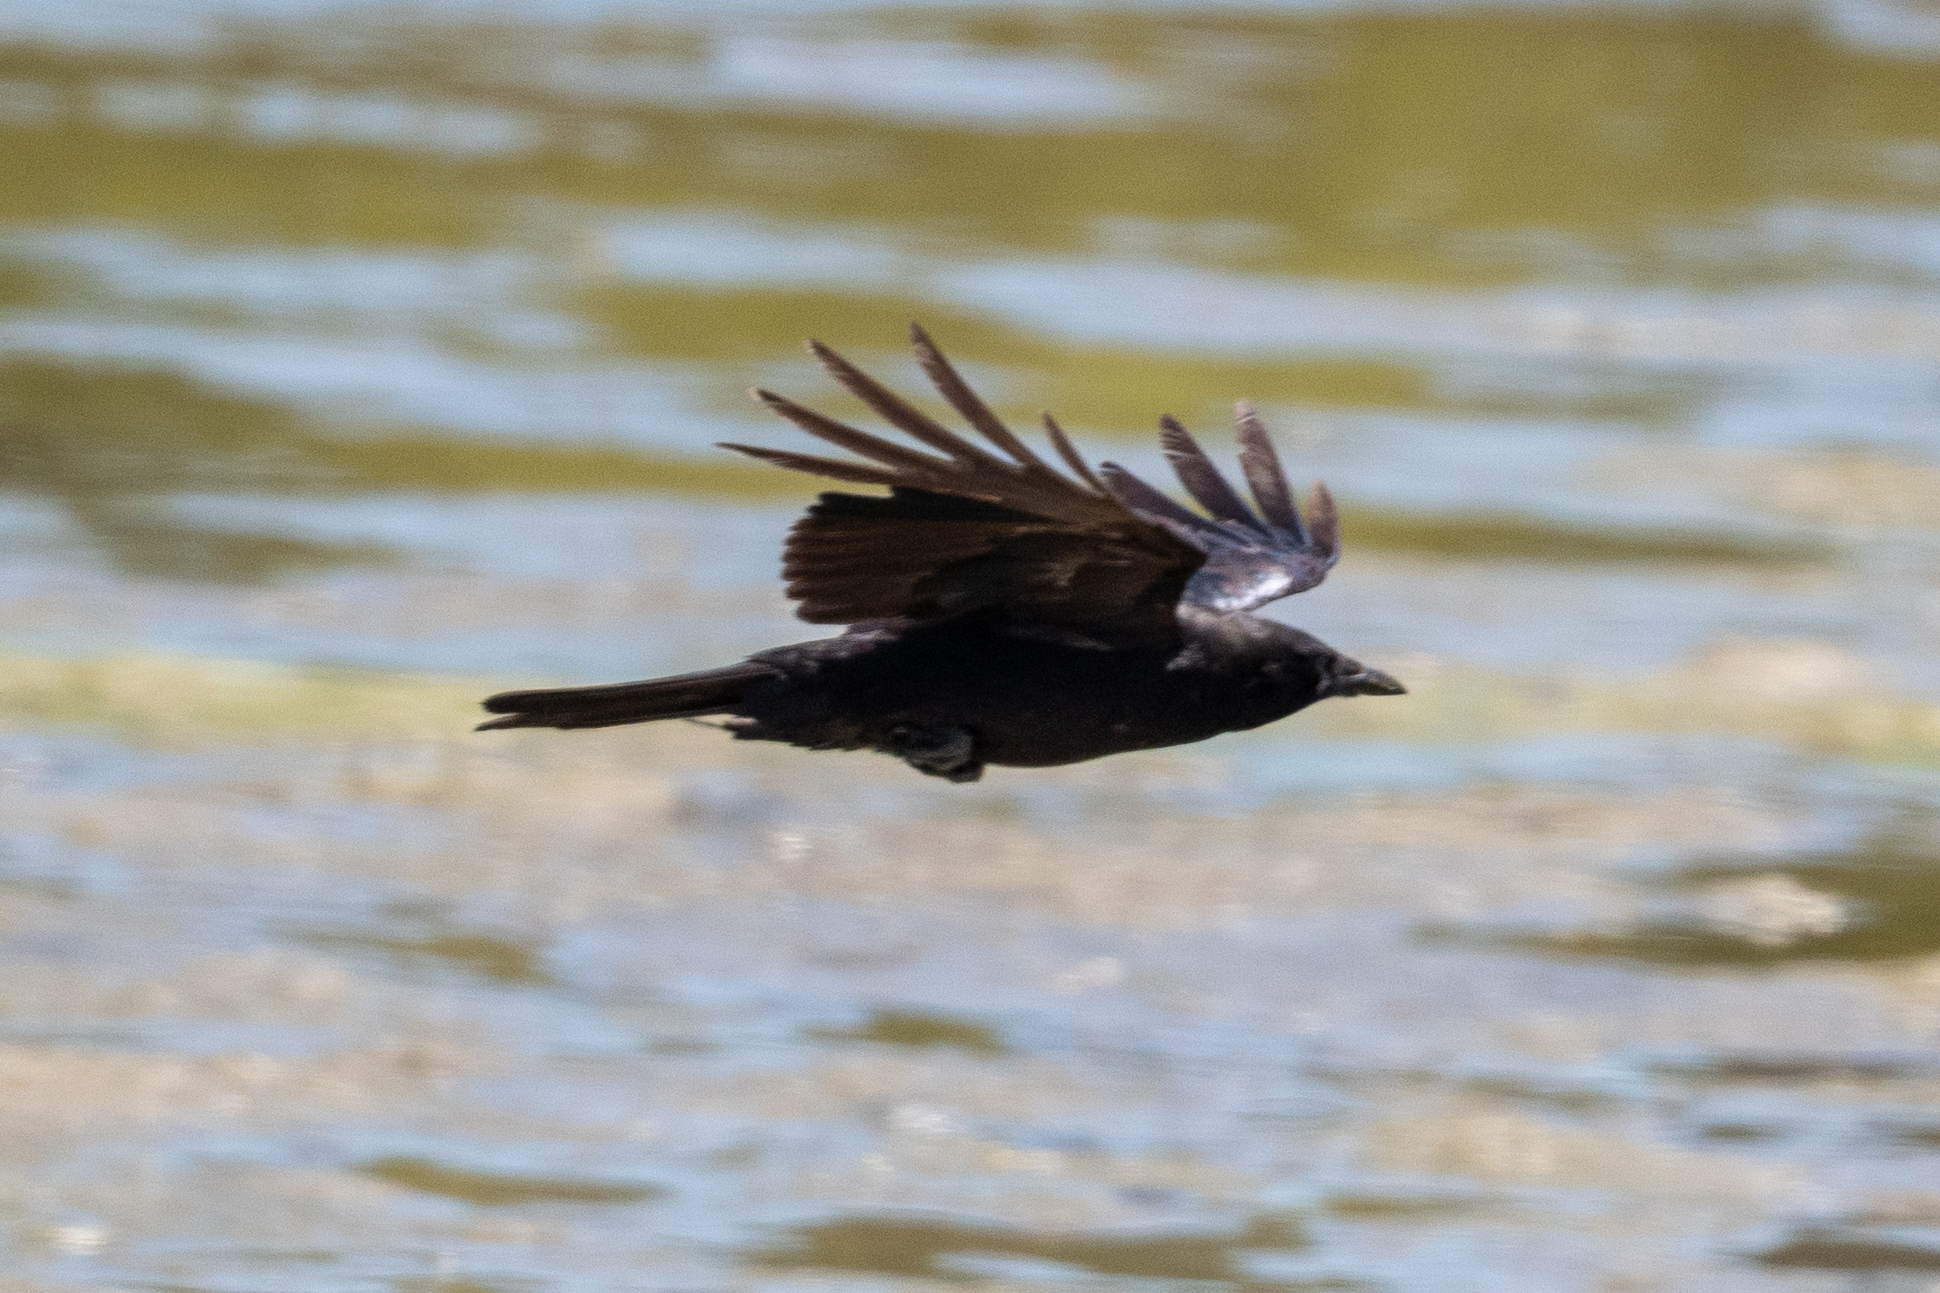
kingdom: Animalia
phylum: Chordata
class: Aves
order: Passeriformes
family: Corvidae
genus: Corvus
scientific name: Corvus corax
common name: Common raven
